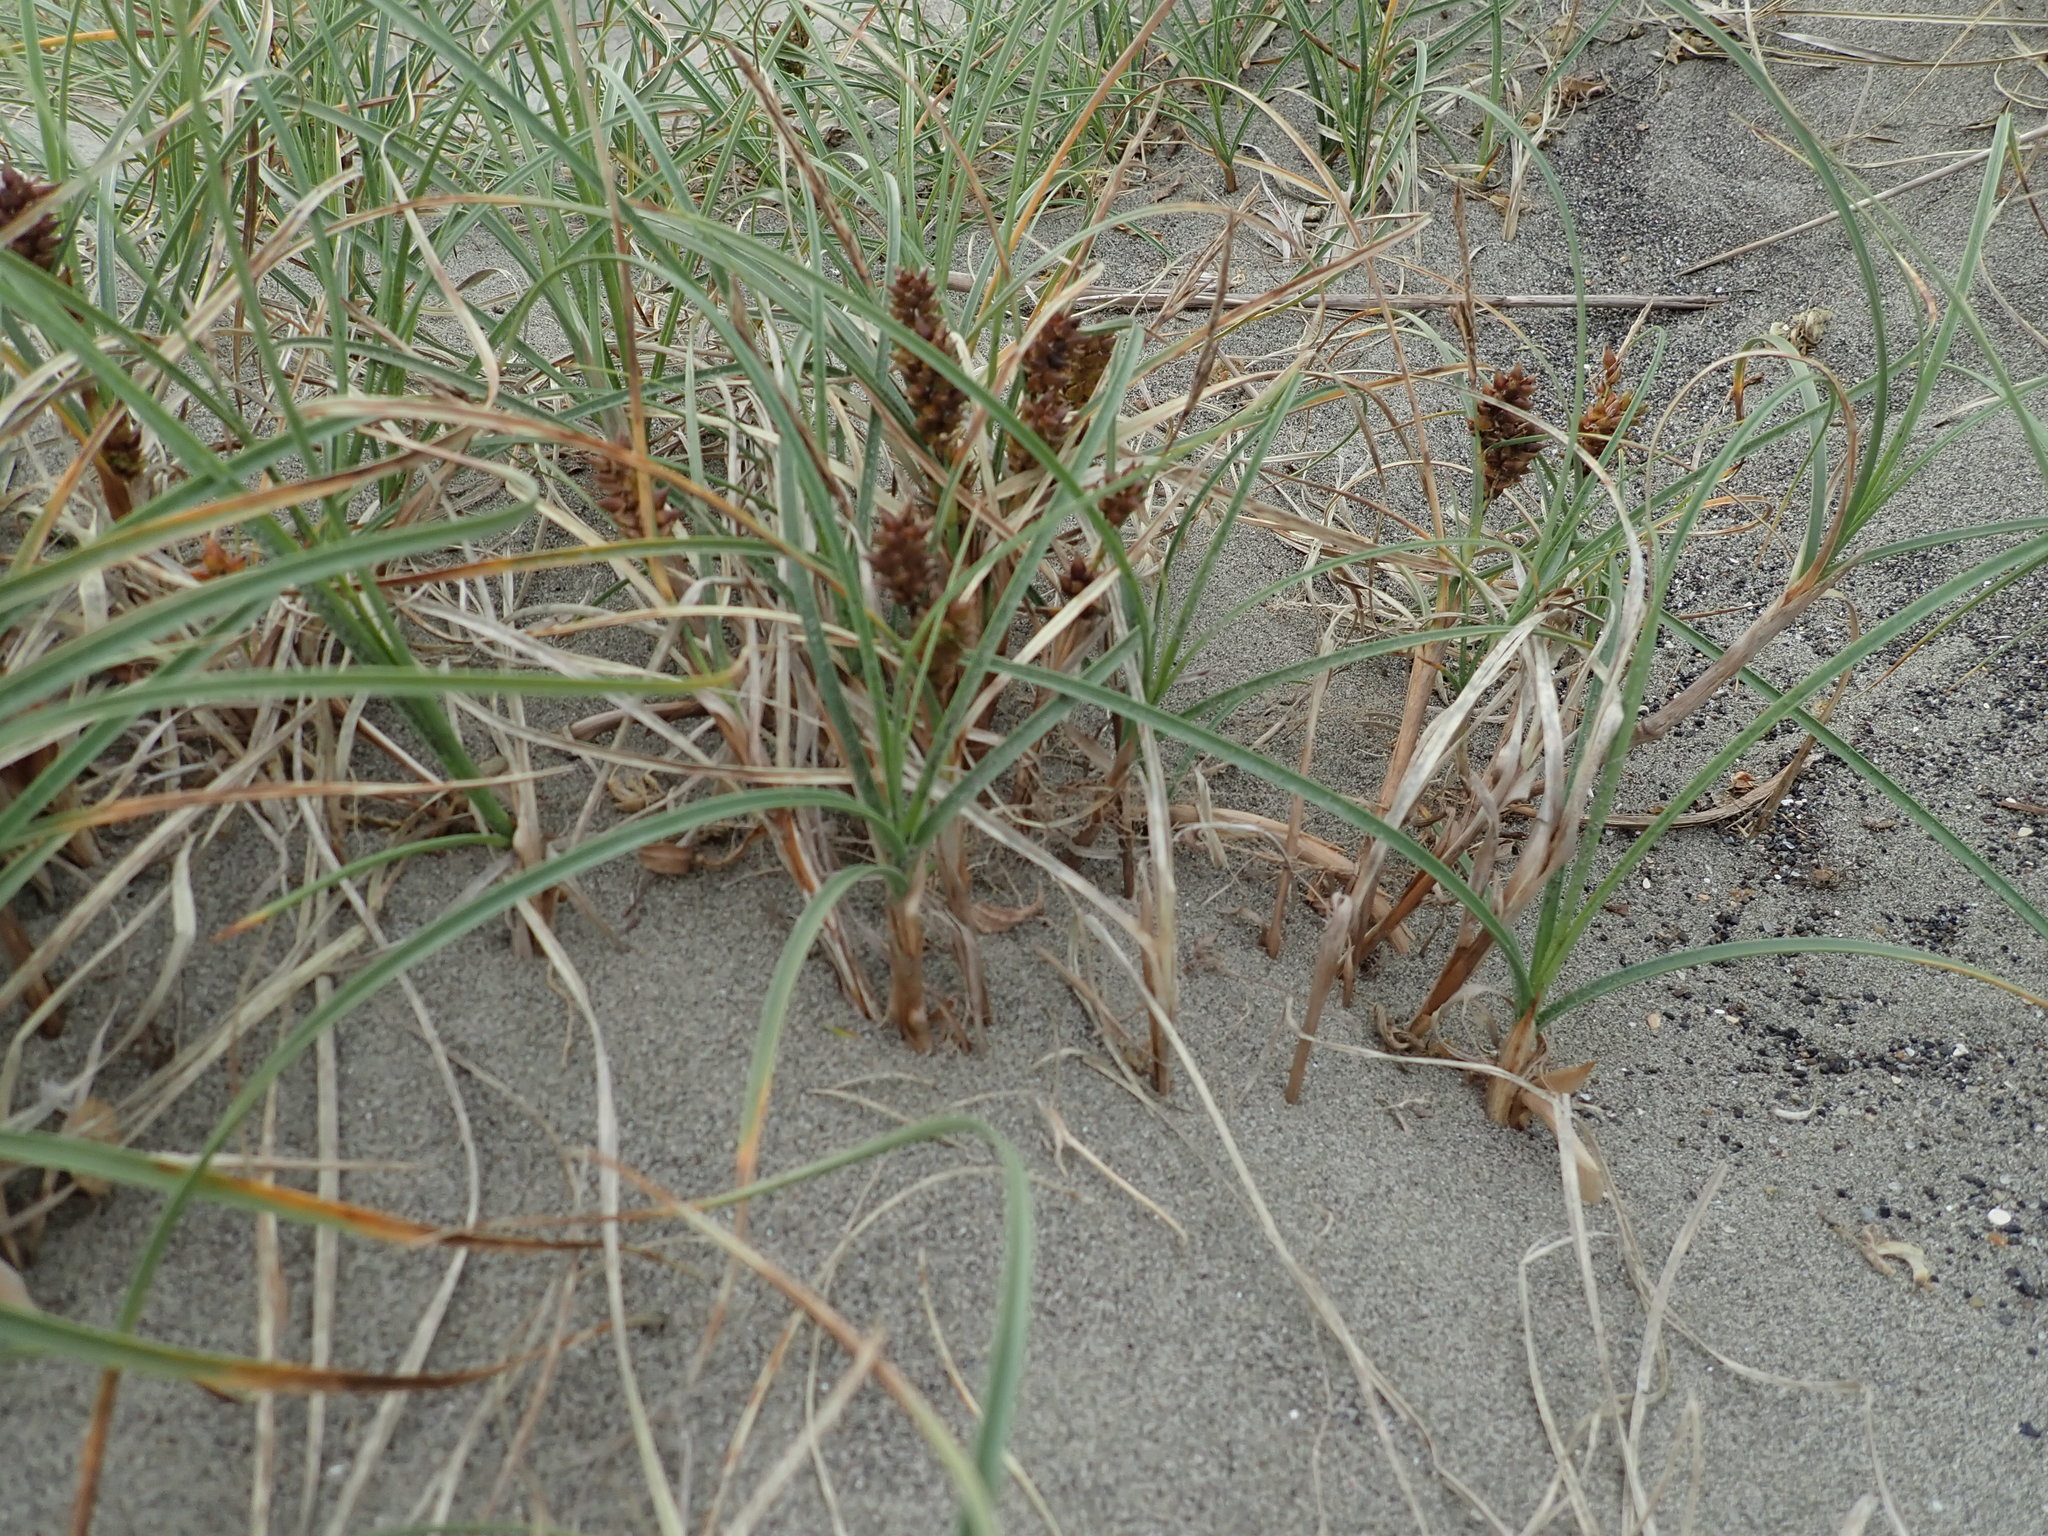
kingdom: Plantae
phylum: Tracheophyta
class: Liliopsida
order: Poales
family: Cyperaceae
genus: Carex
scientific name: Carex pumila
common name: Dwarf sedge
